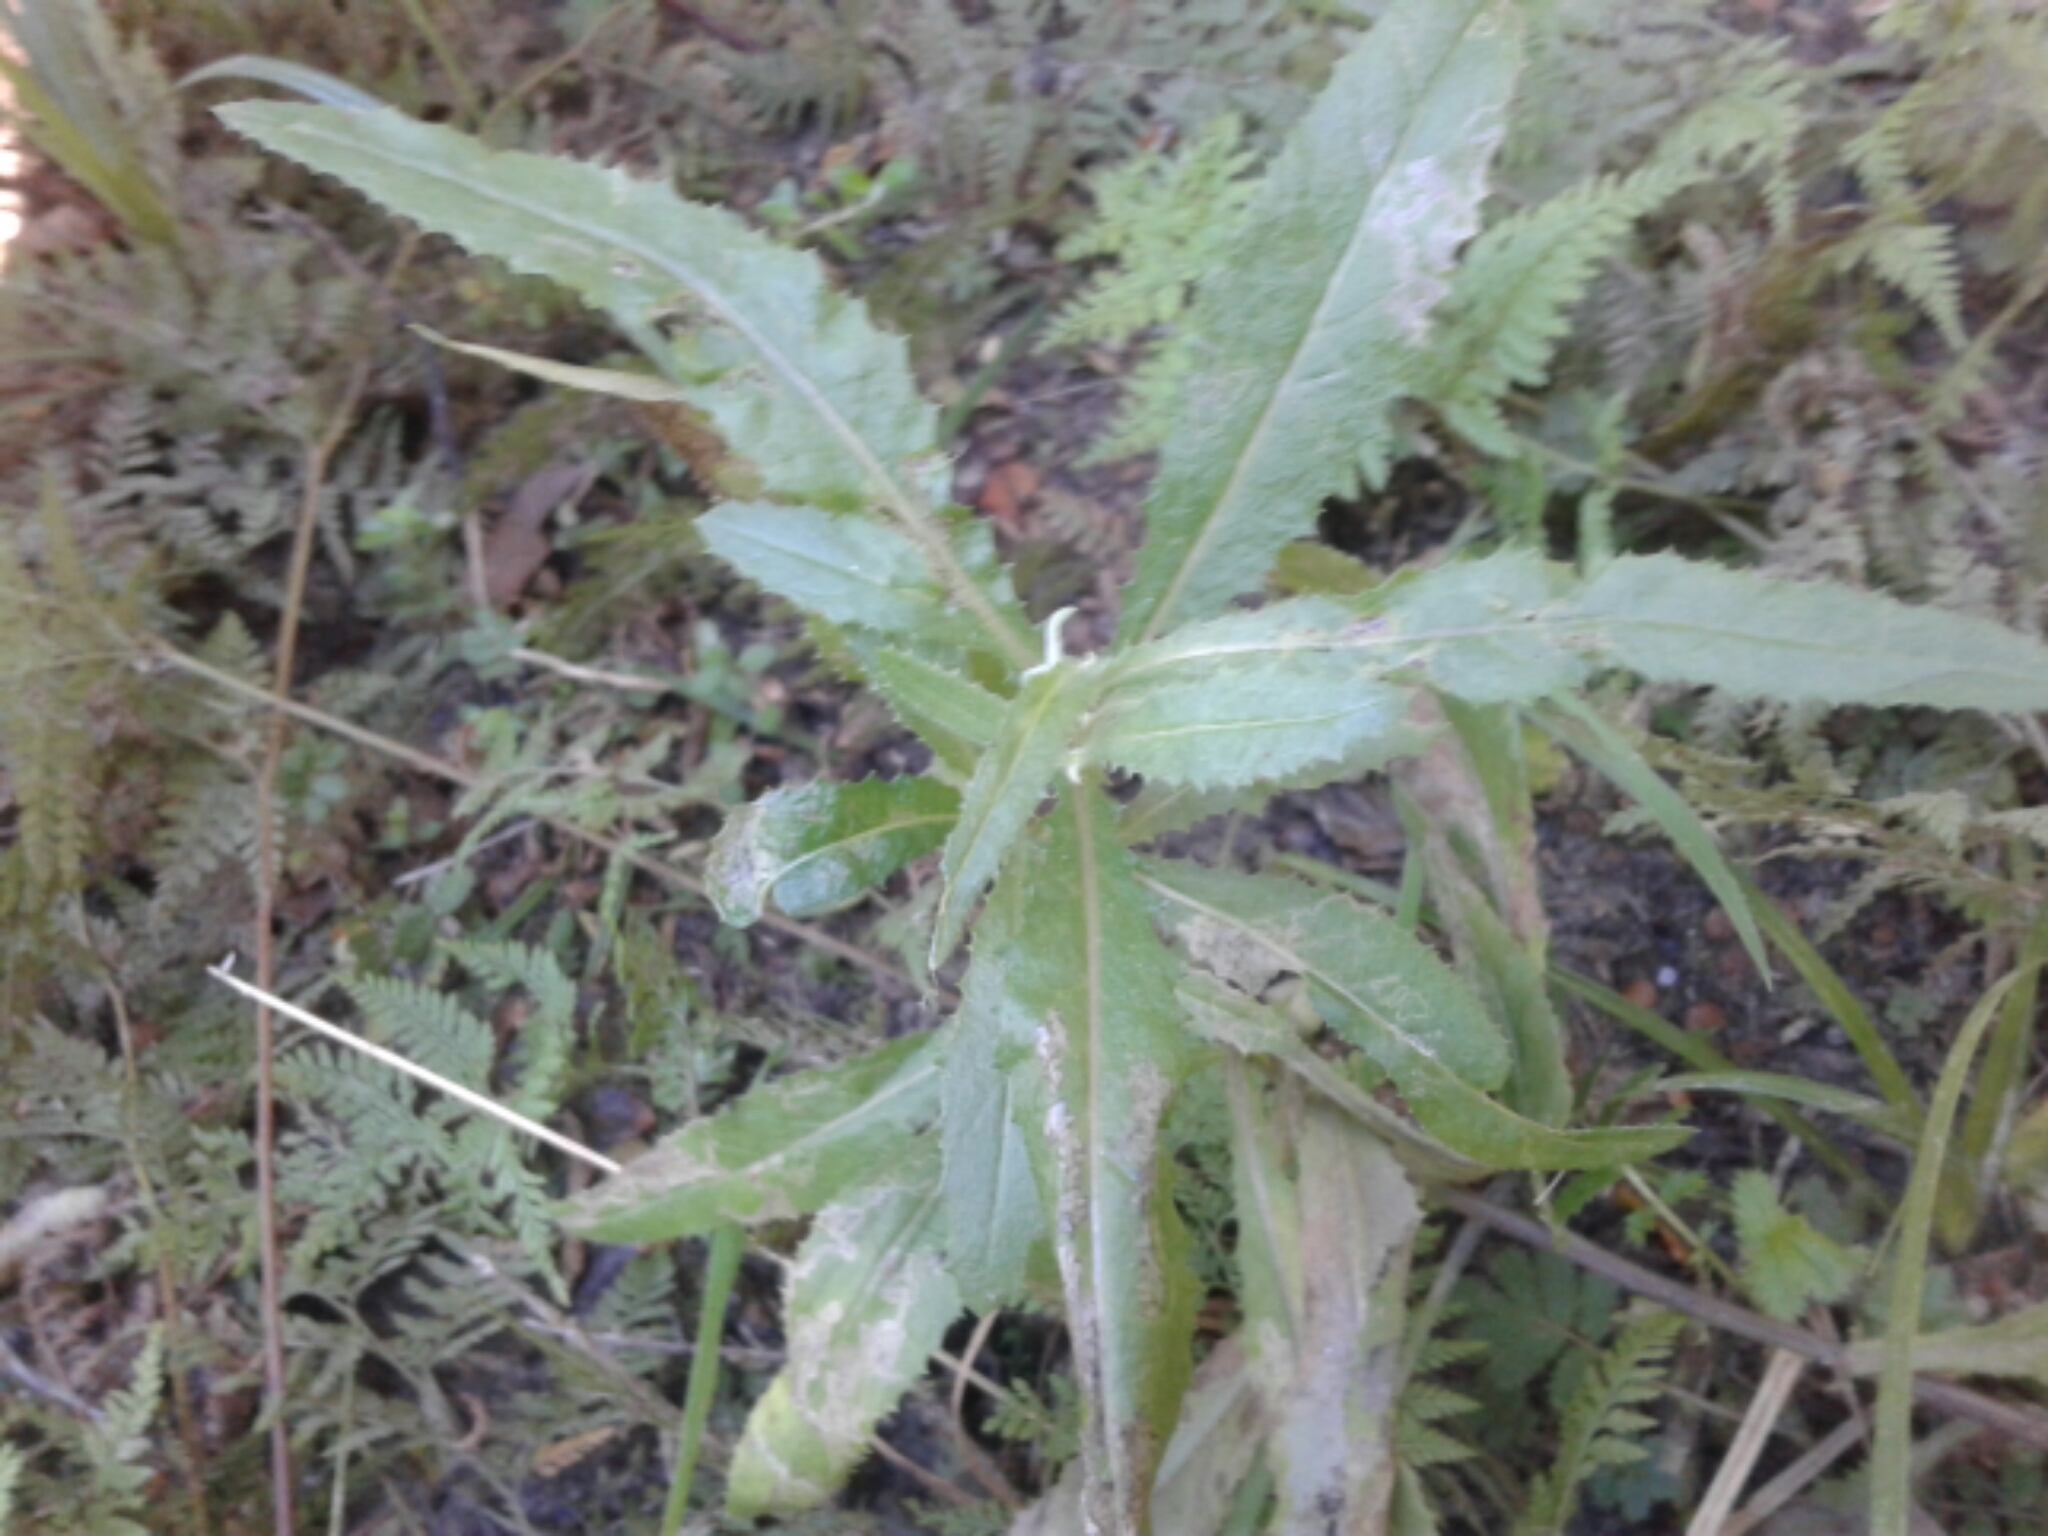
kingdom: Plantae
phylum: Tracheophyta
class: Magnoliopsida
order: Asterales
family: Asteraceae
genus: Senecio
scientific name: Senecio minimus
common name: Toothed fireweed
